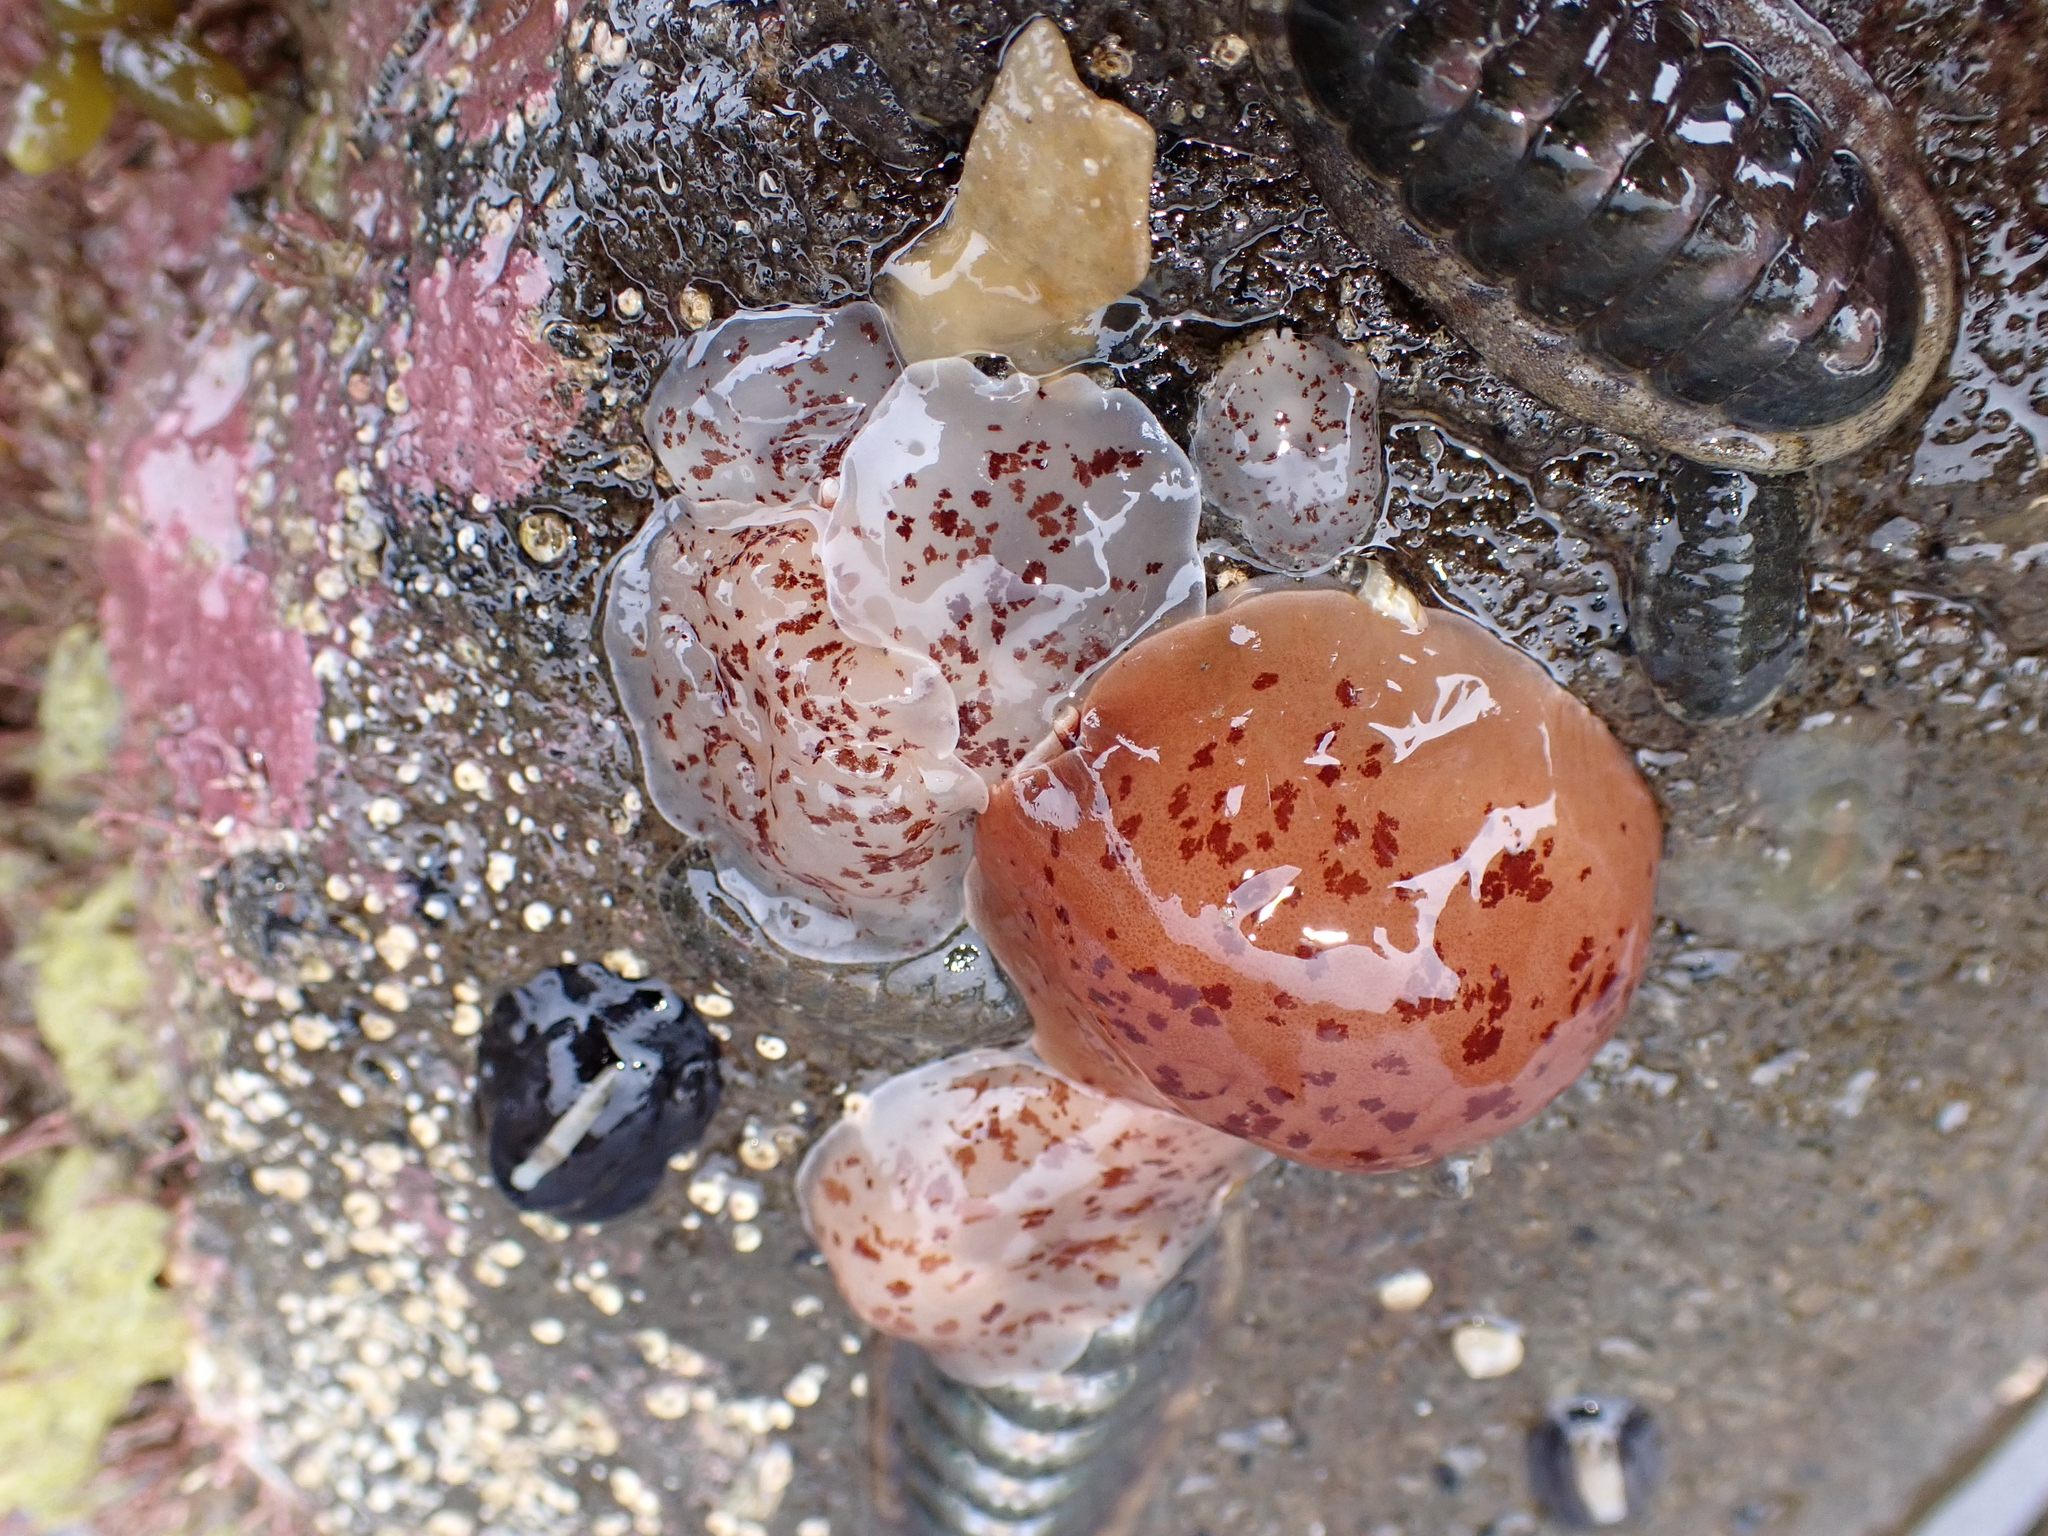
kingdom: Animalia
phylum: Mollusca
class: Gastropoda
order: Pleurobranchida
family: Pleurobranchidae
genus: Berthella
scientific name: Berthella ornata
